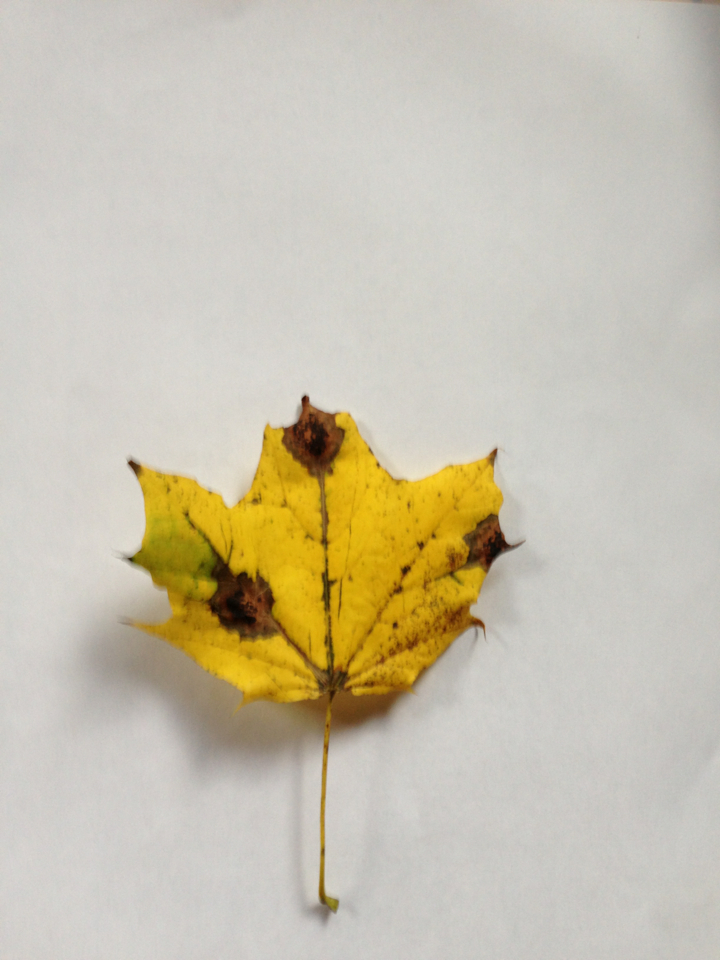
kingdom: Fungi
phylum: Ascomycota
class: Leotiomycetes
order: Rhytismatales
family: Rhytismataceae
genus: Rhytisma
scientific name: Rhytisma acerinum
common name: European tar spot
